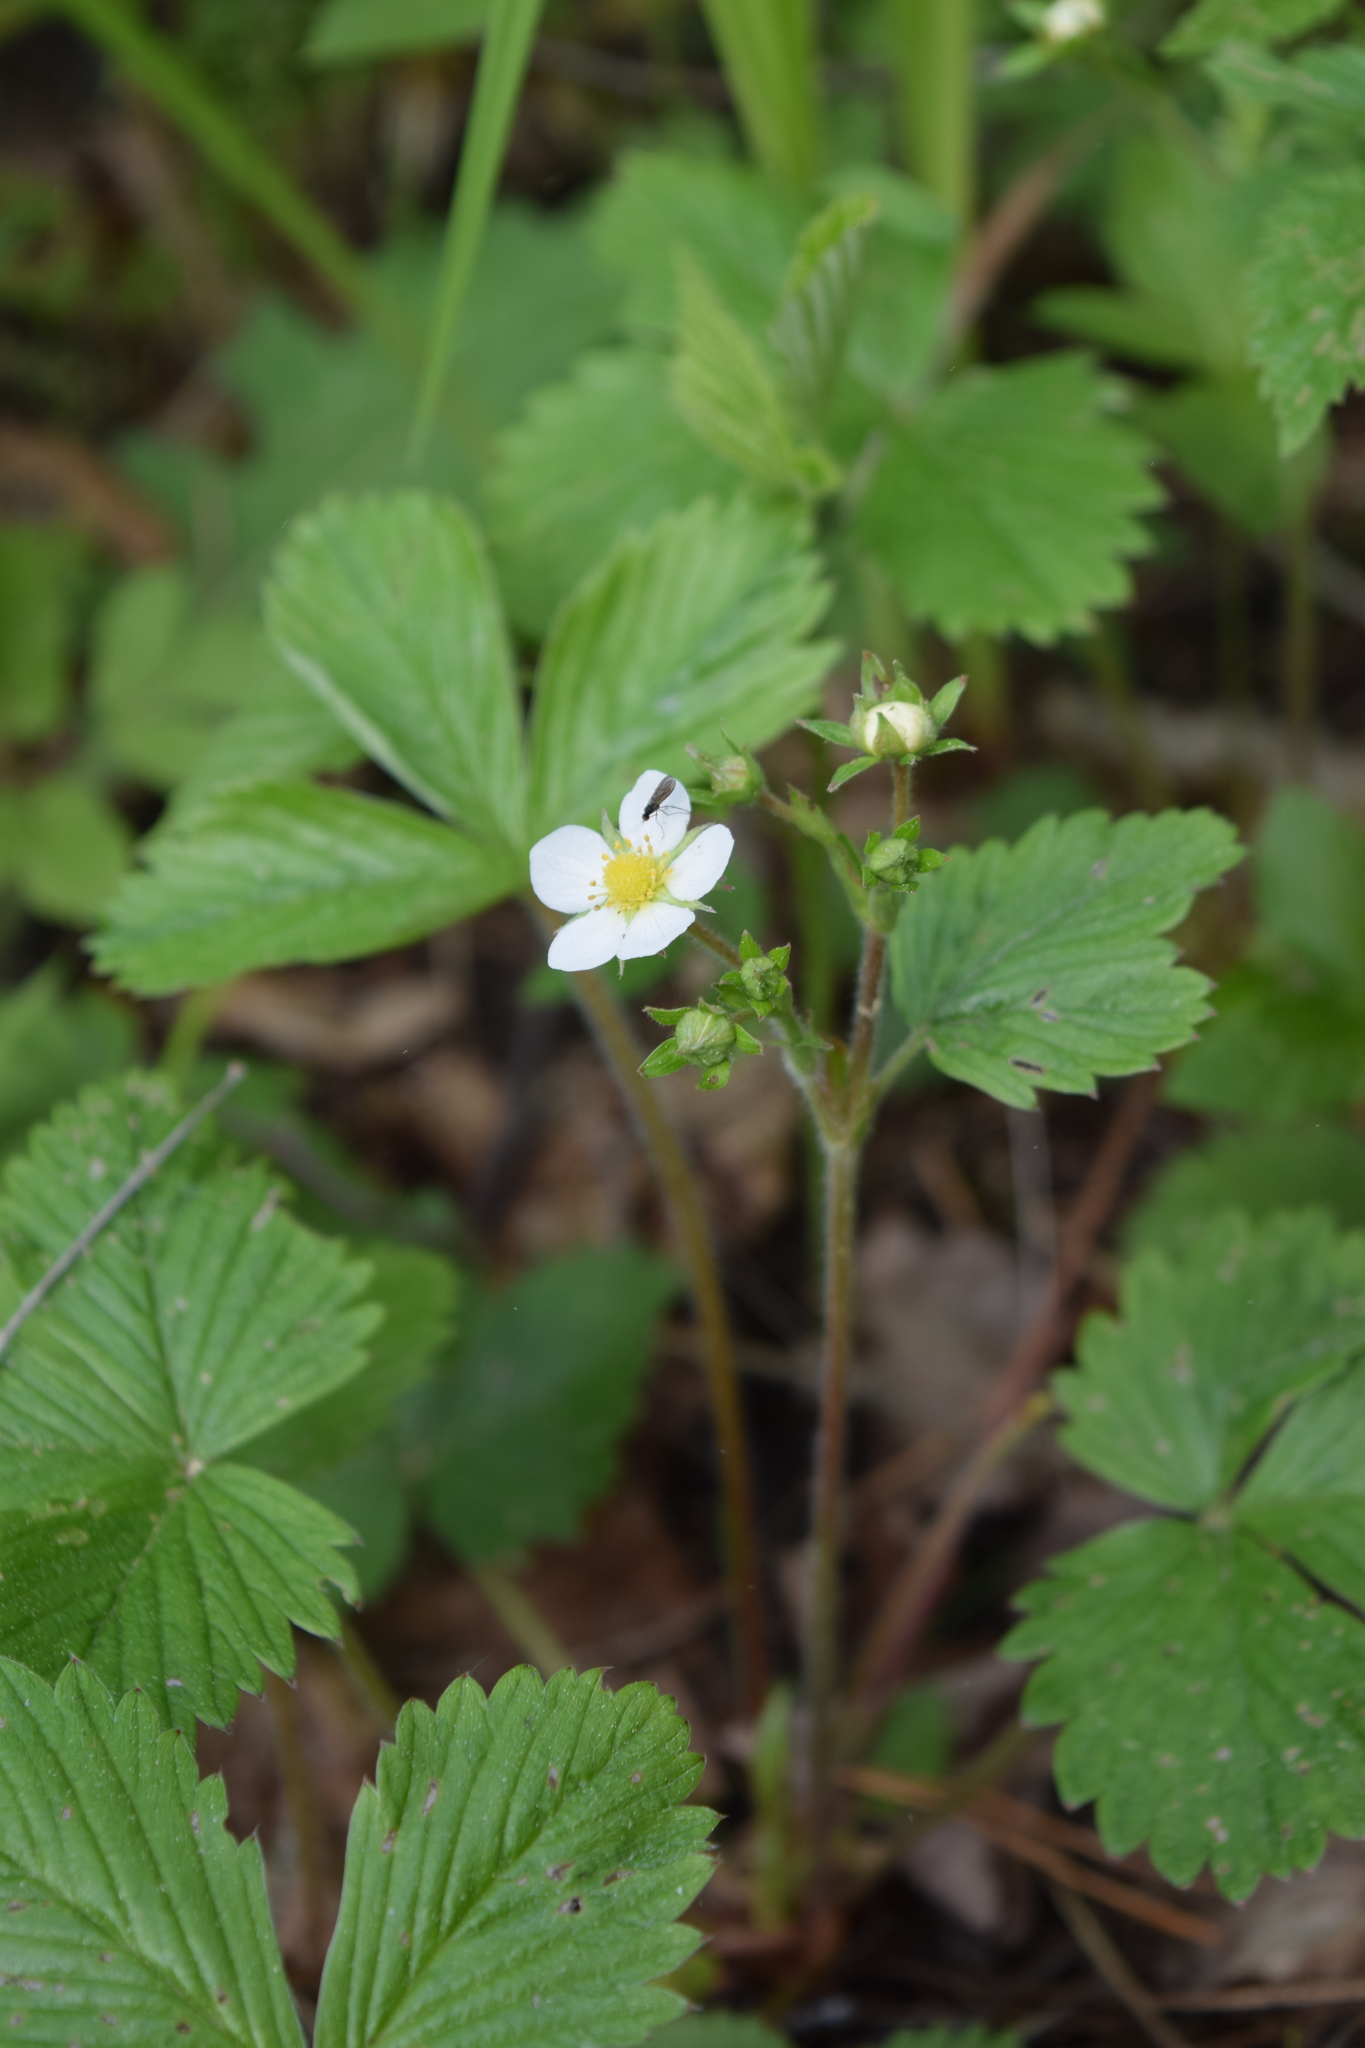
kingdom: Plantae
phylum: Tracheophyta
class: Magnoliopsida
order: Rosales
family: Rosaceae
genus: Fragaria
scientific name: Fragaria vesca
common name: Wild strawberry
